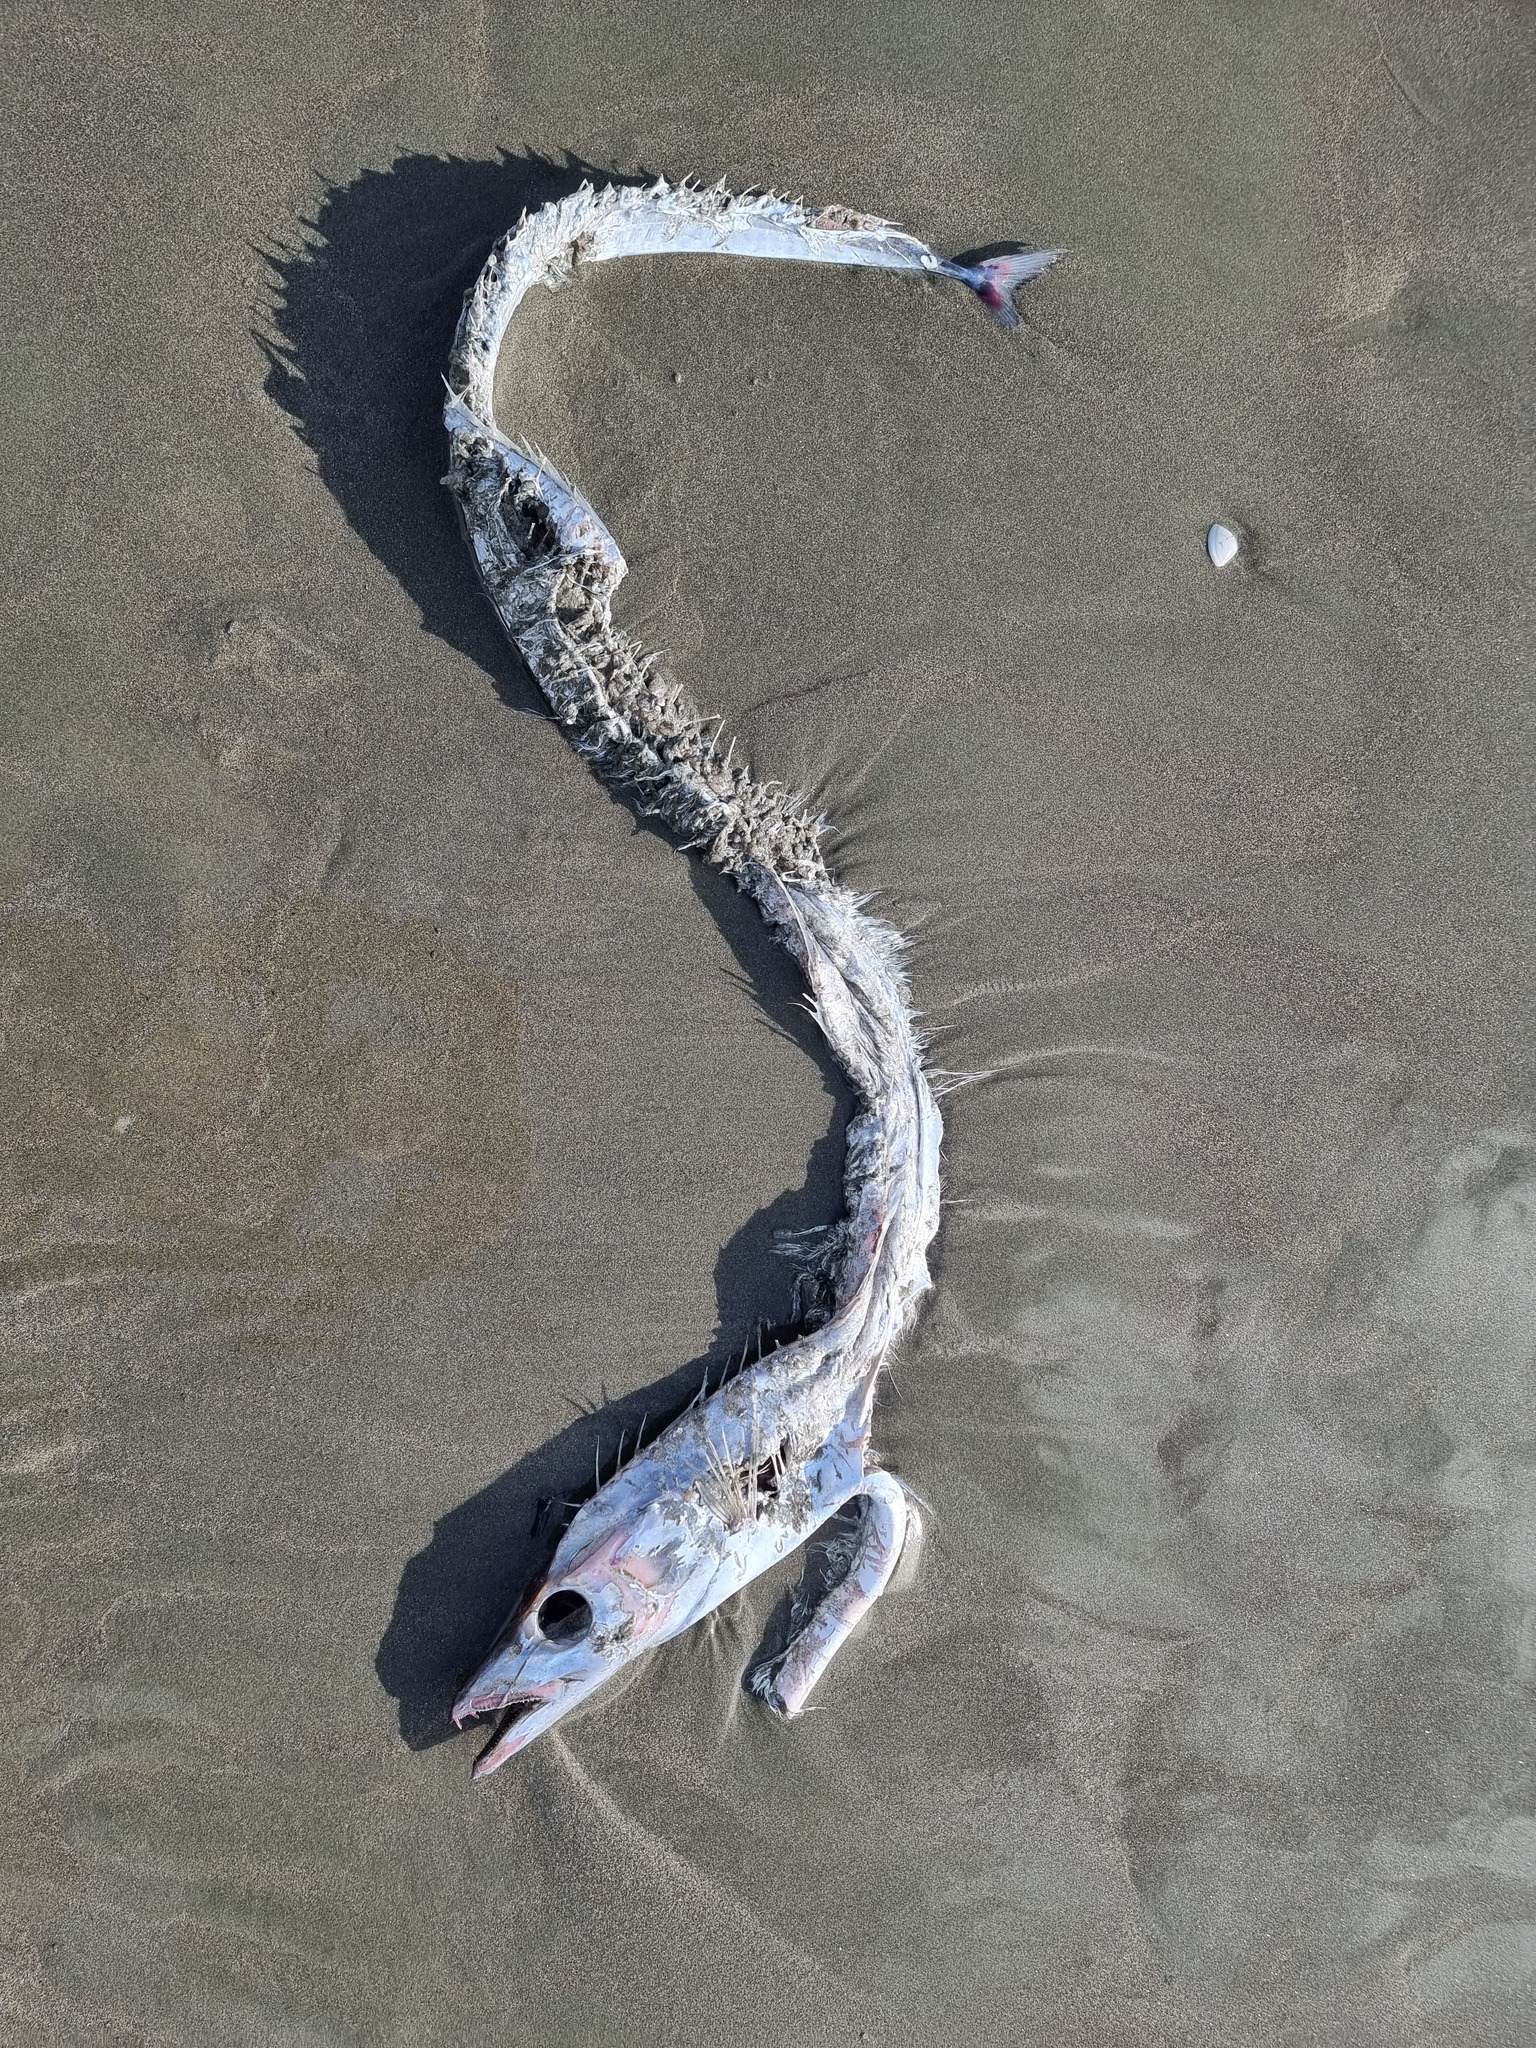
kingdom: Animalia
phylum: Chordata
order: Perciformes
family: Trichiuridae
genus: Lepidopus
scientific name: Lepidopus caudatus
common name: Silver scabbardfish
